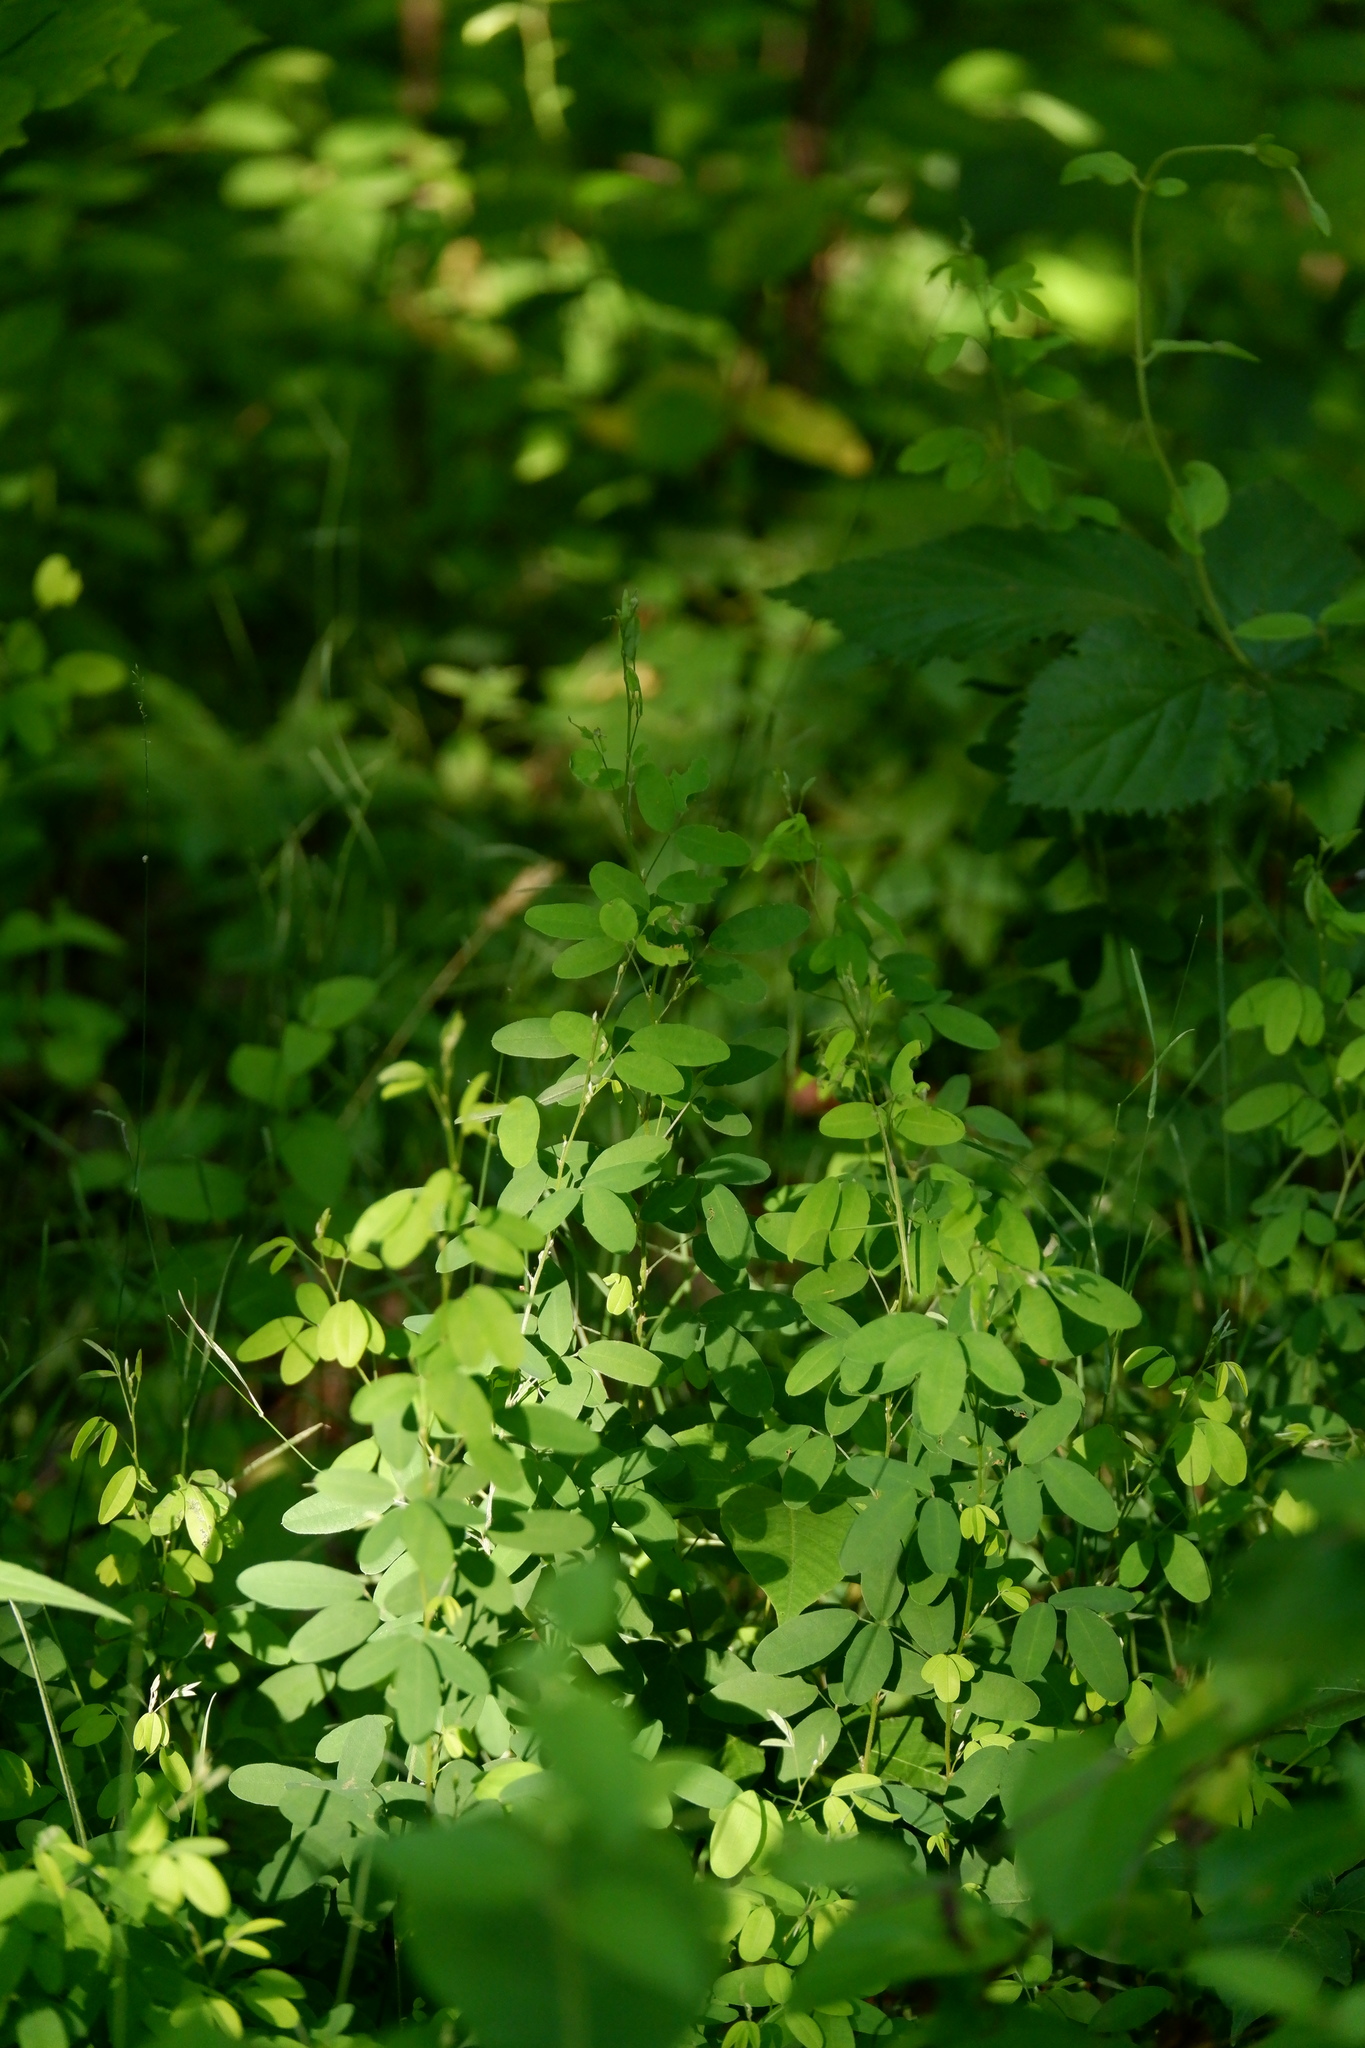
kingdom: Plantae
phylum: Tracheophyta
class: Magnoliopsida
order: Fabales
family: Fabaceae
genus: Lespedeza
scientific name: Lespedeza
